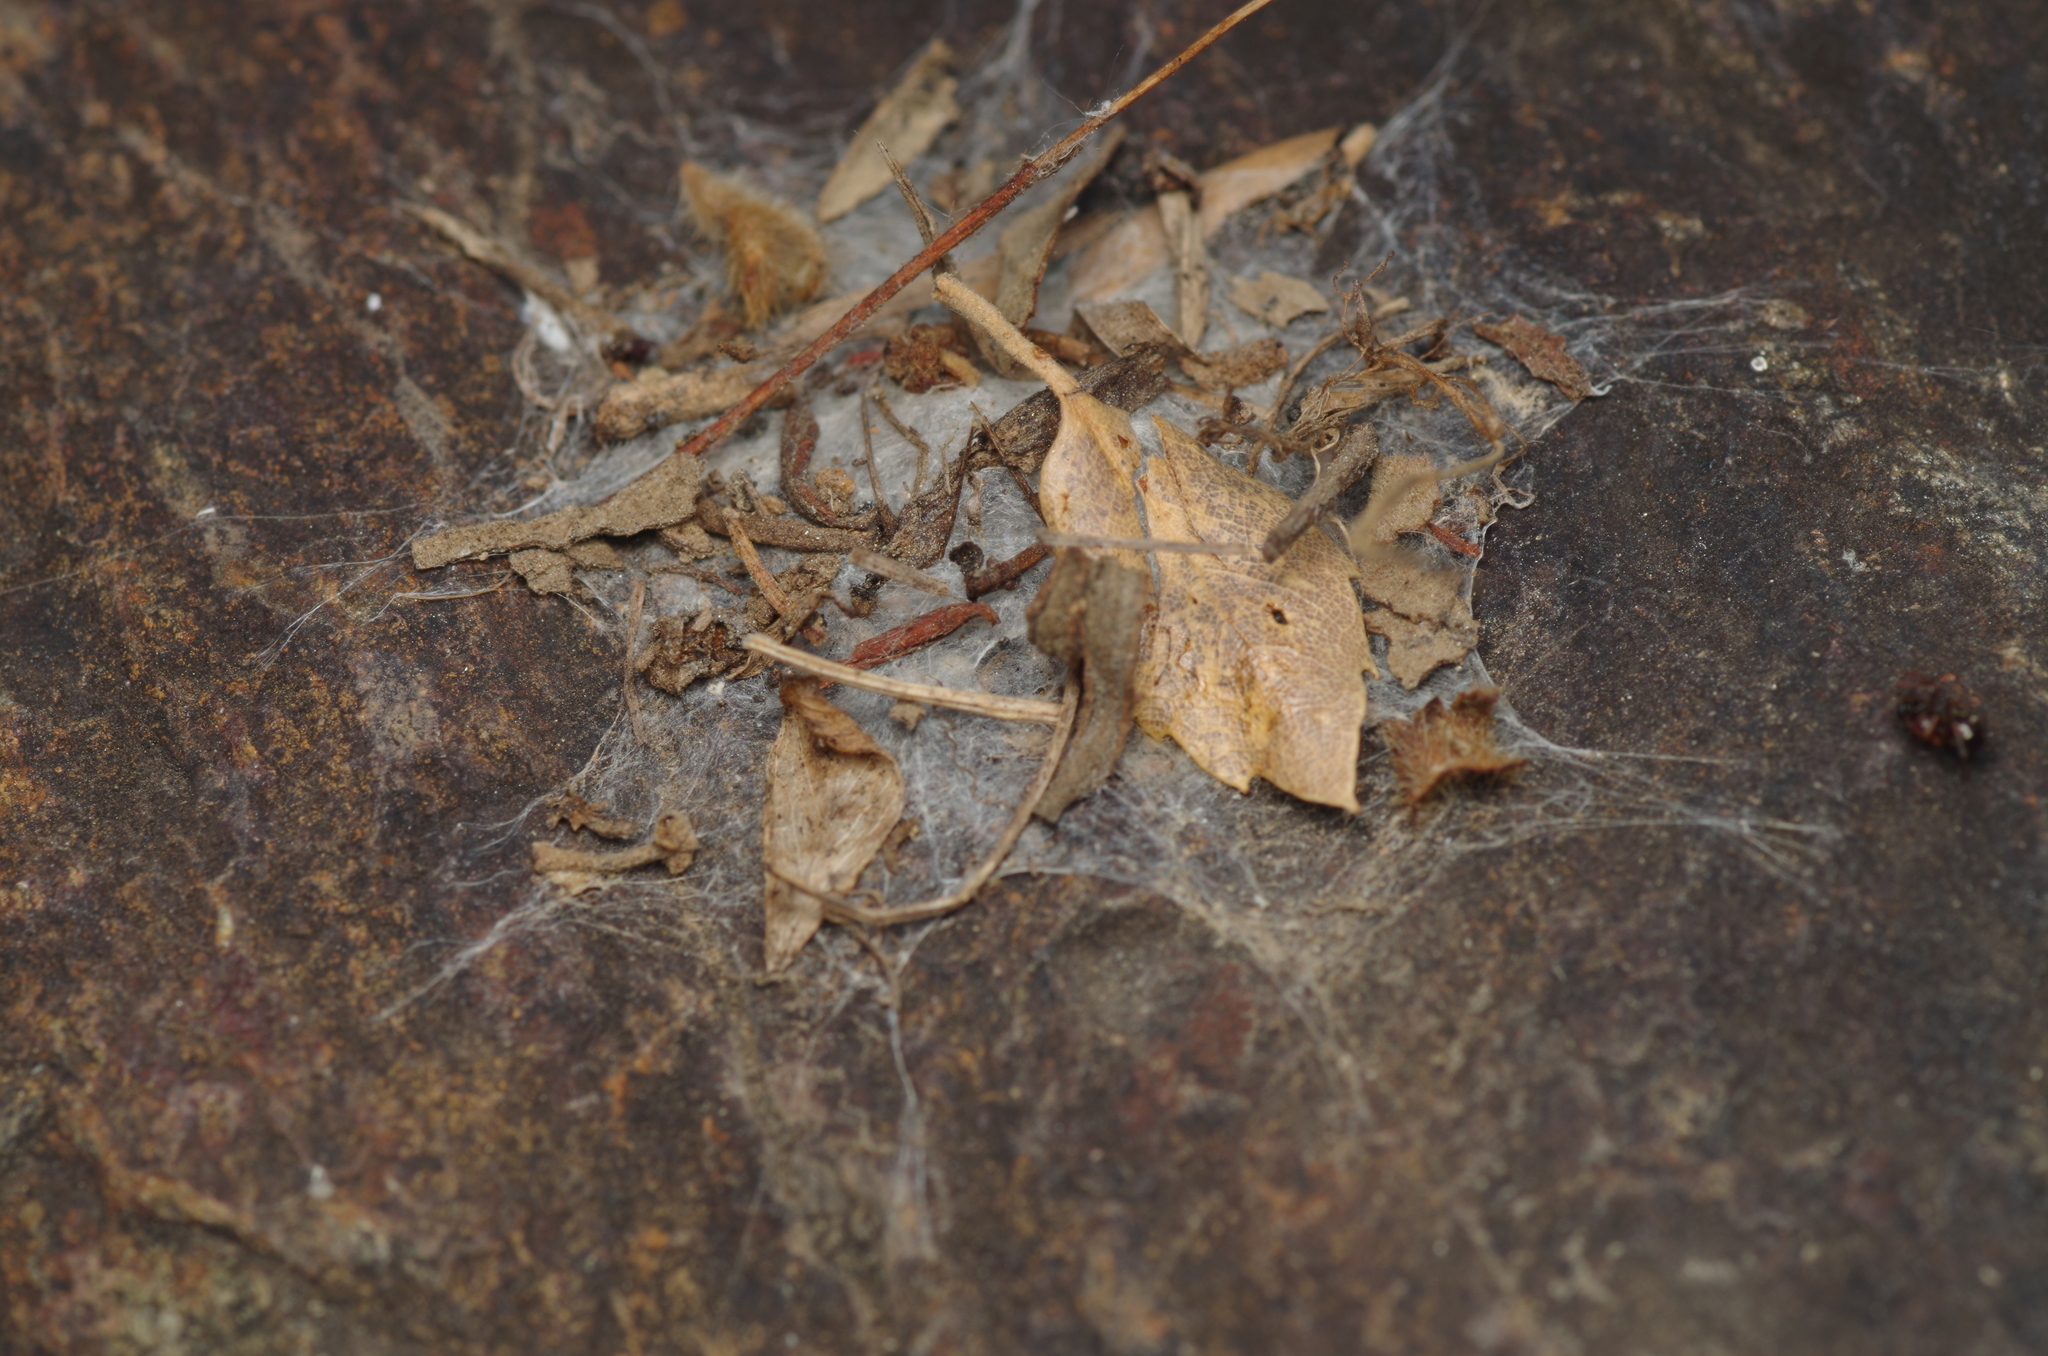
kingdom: Animalia
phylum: Arthropoda
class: Arachnida
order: Araneae
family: Oecobiidae
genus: Uroctea
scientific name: Uroctea durandi
